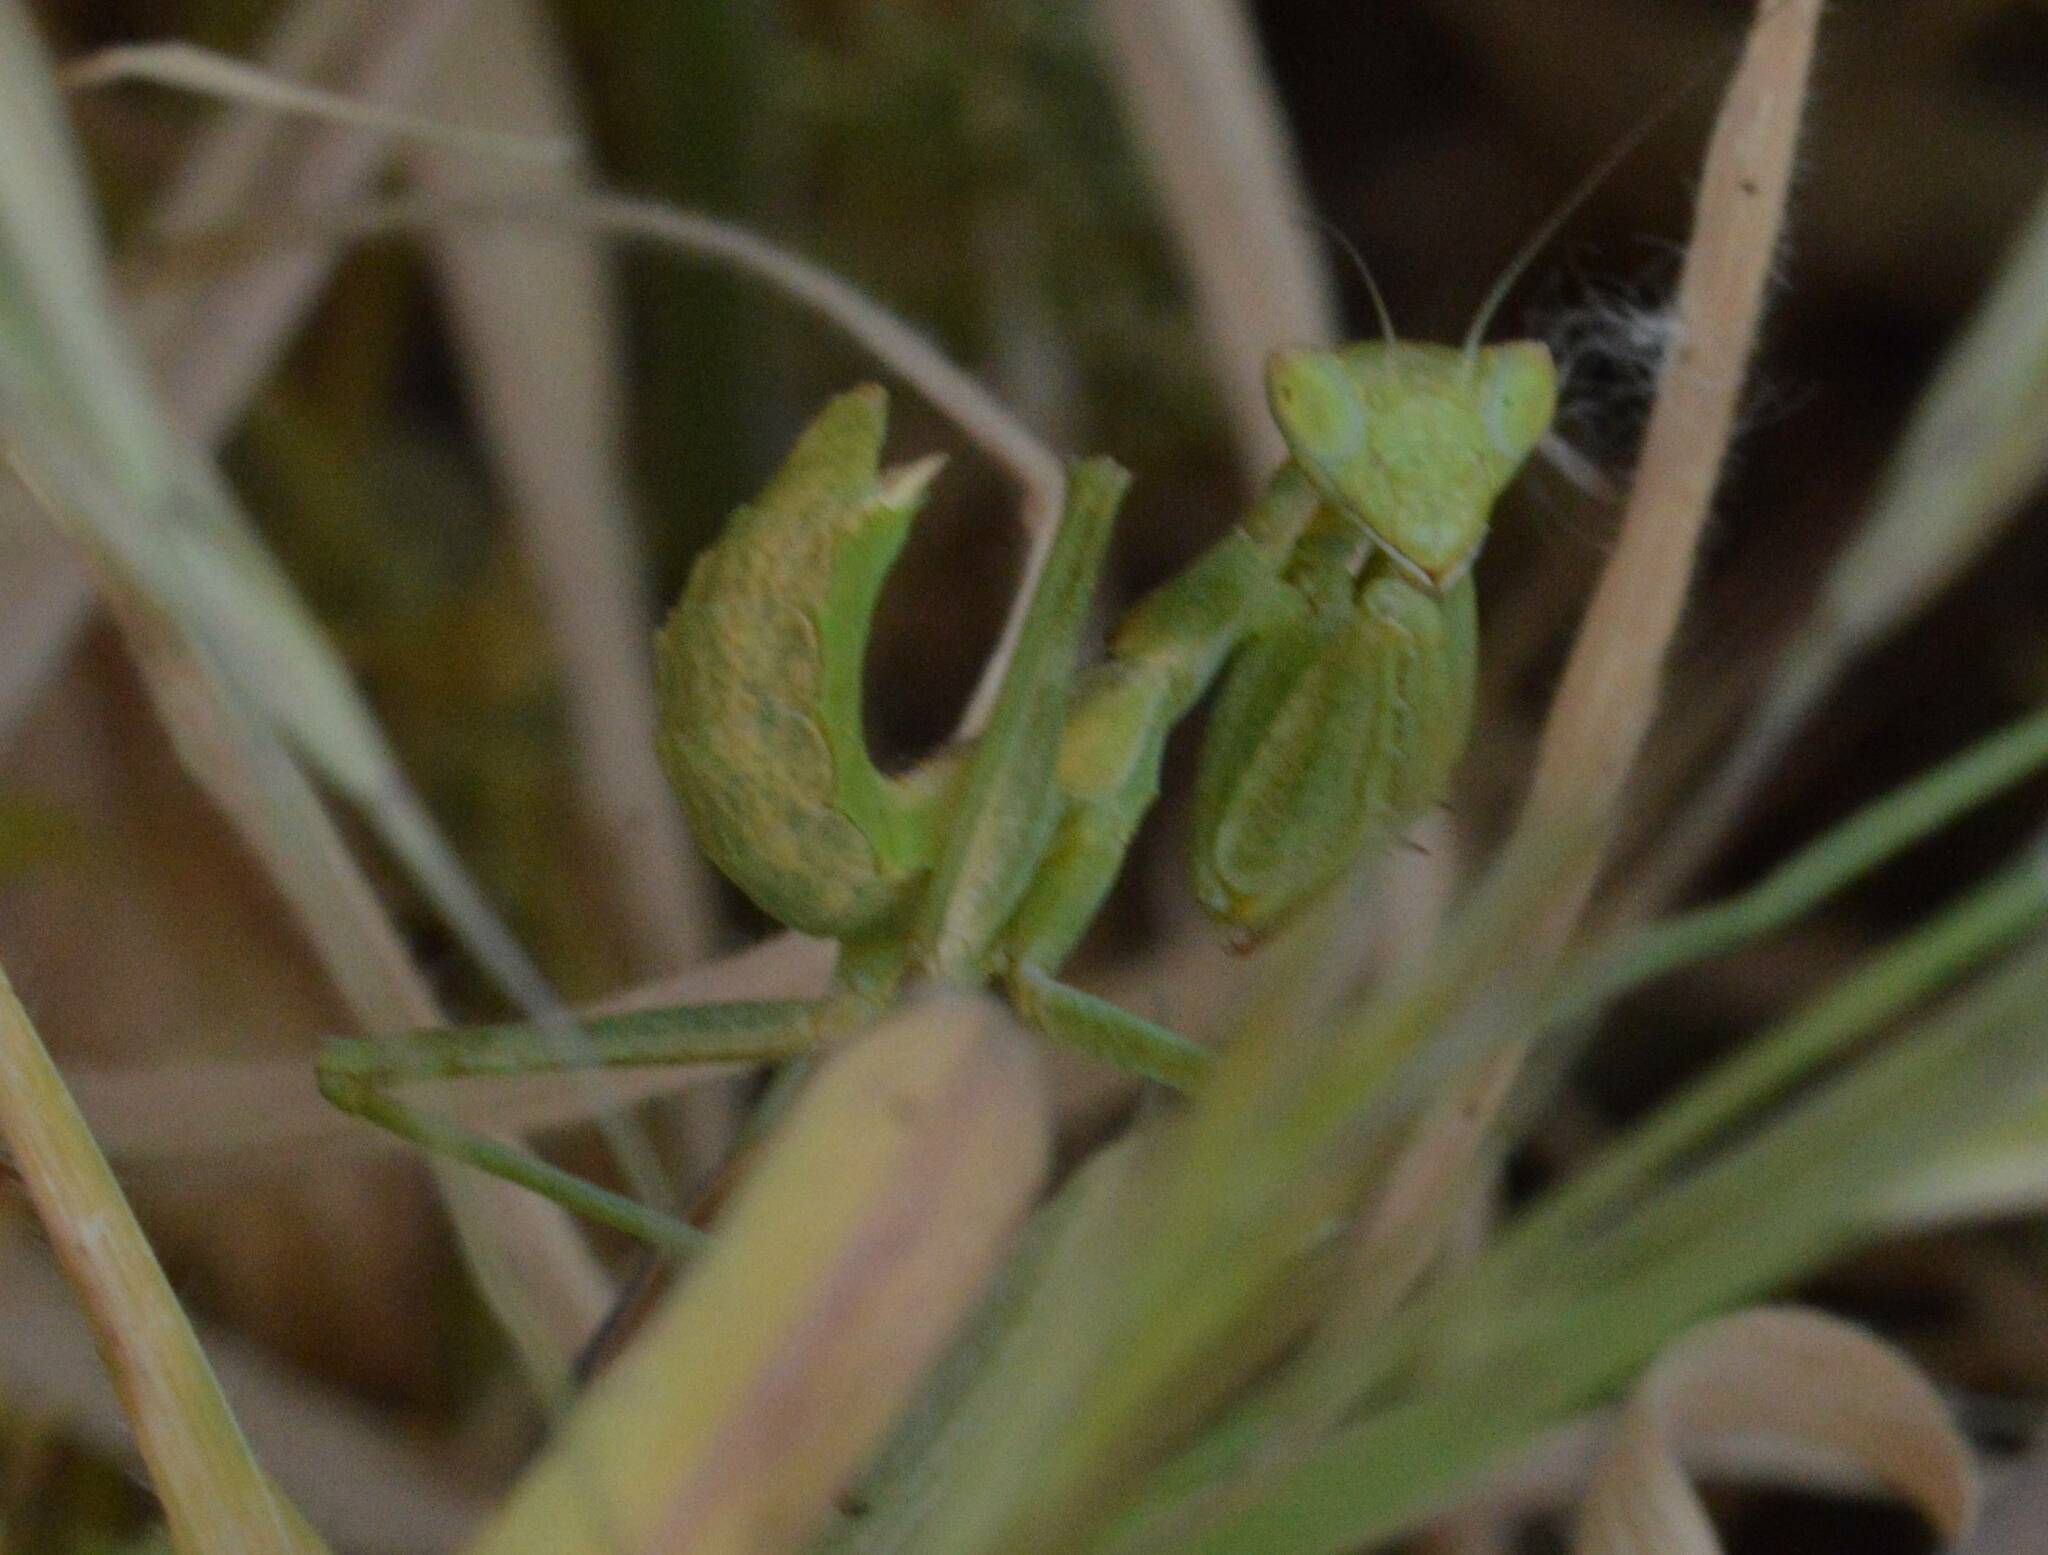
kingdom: Animalia
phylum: Arthropoda
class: Insecta
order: Mantodea
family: Amelidae
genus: Ameles
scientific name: Ameles spallanzania
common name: European dwarf mantis
